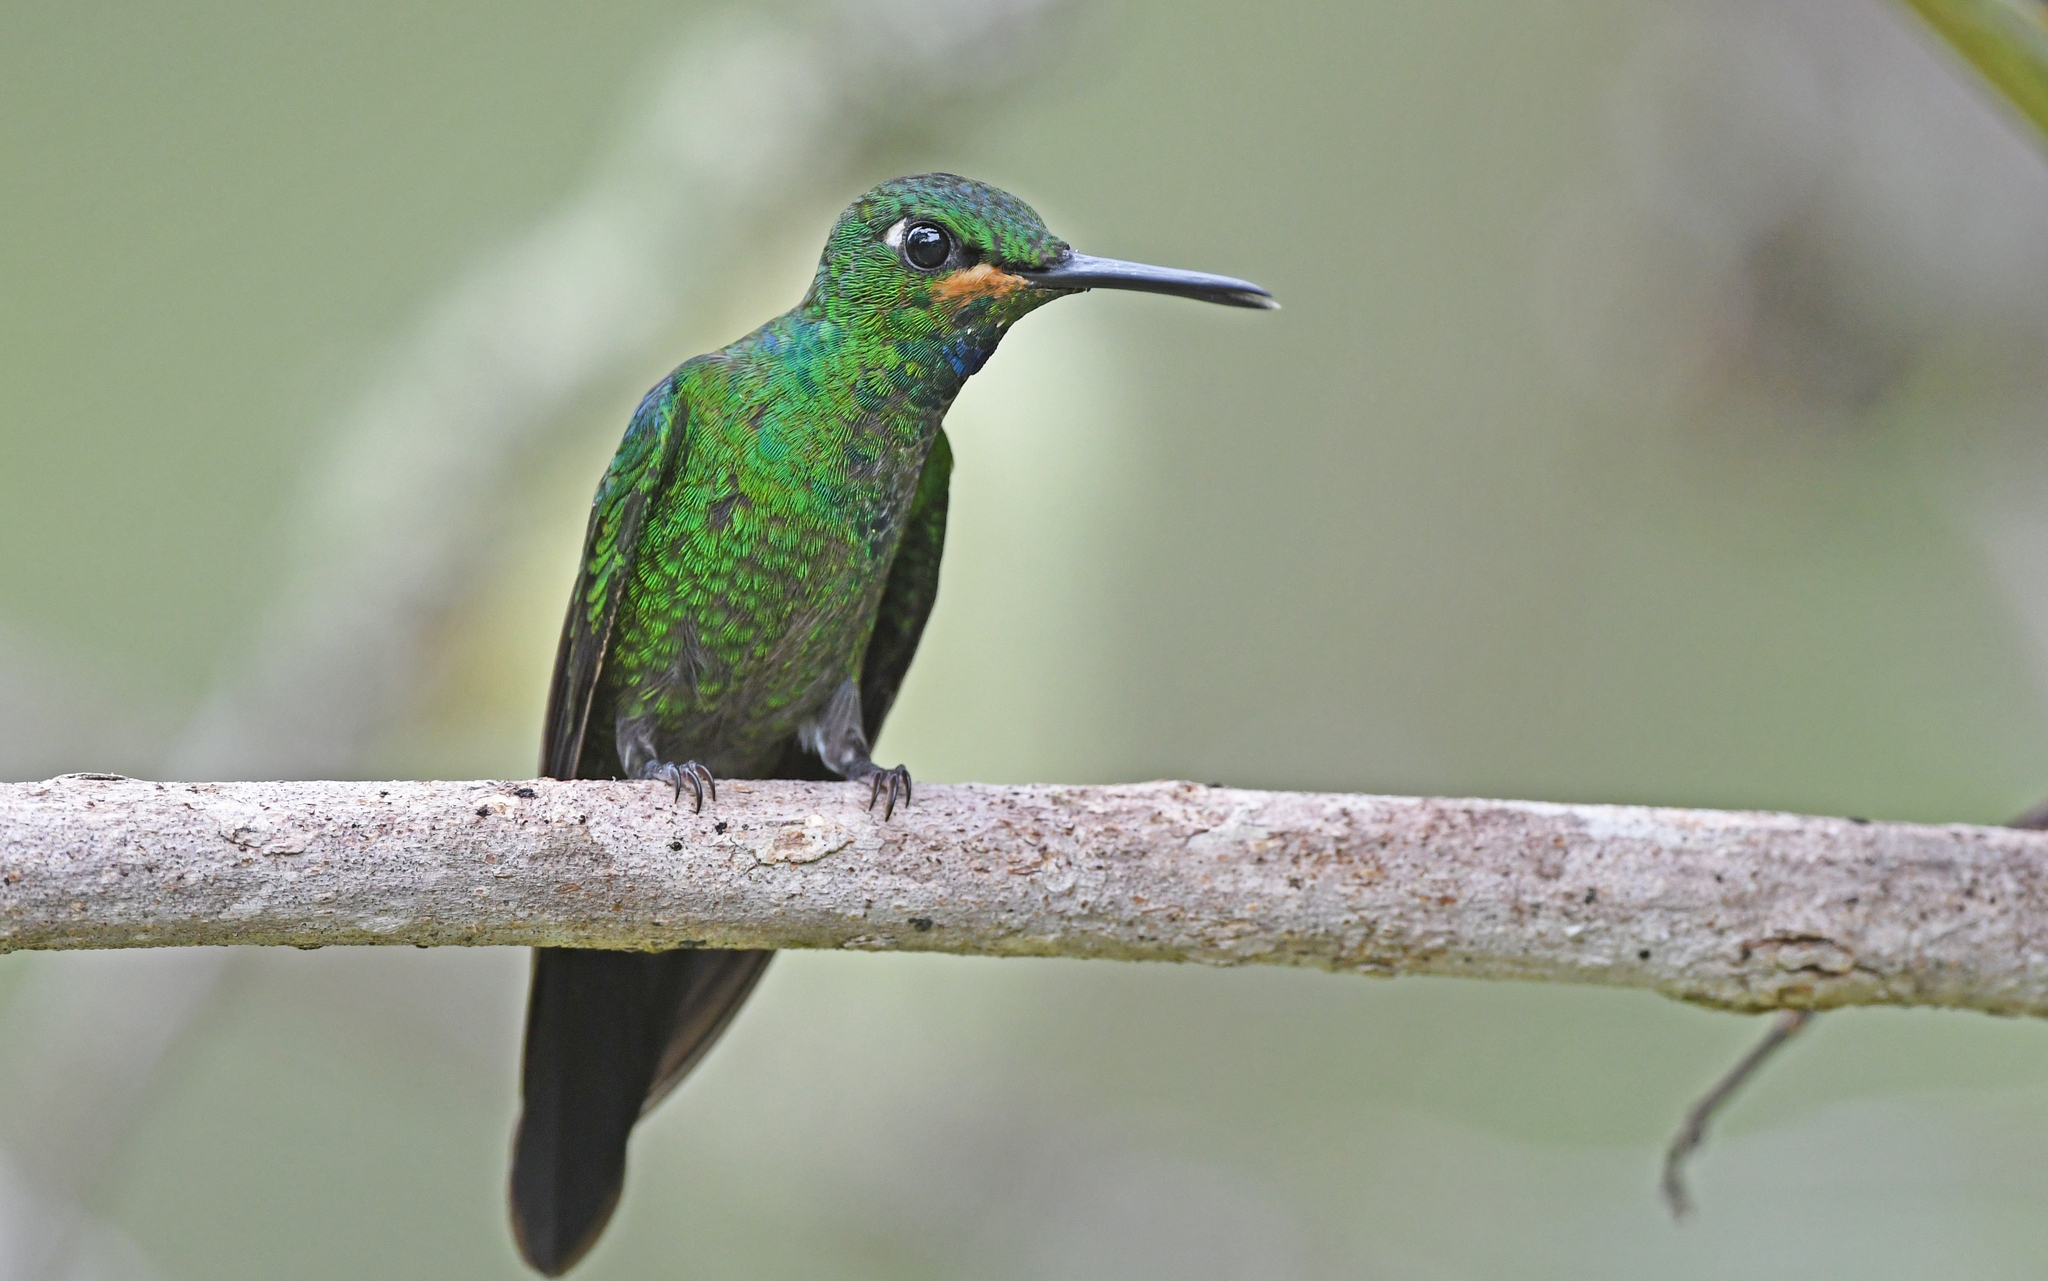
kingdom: Animalia
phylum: Chordata
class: Aves
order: Apodiformes
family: Trochilidae
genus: Heliodoxa
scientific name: Heliodoxa jacula
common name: Green-crowned brilliant
